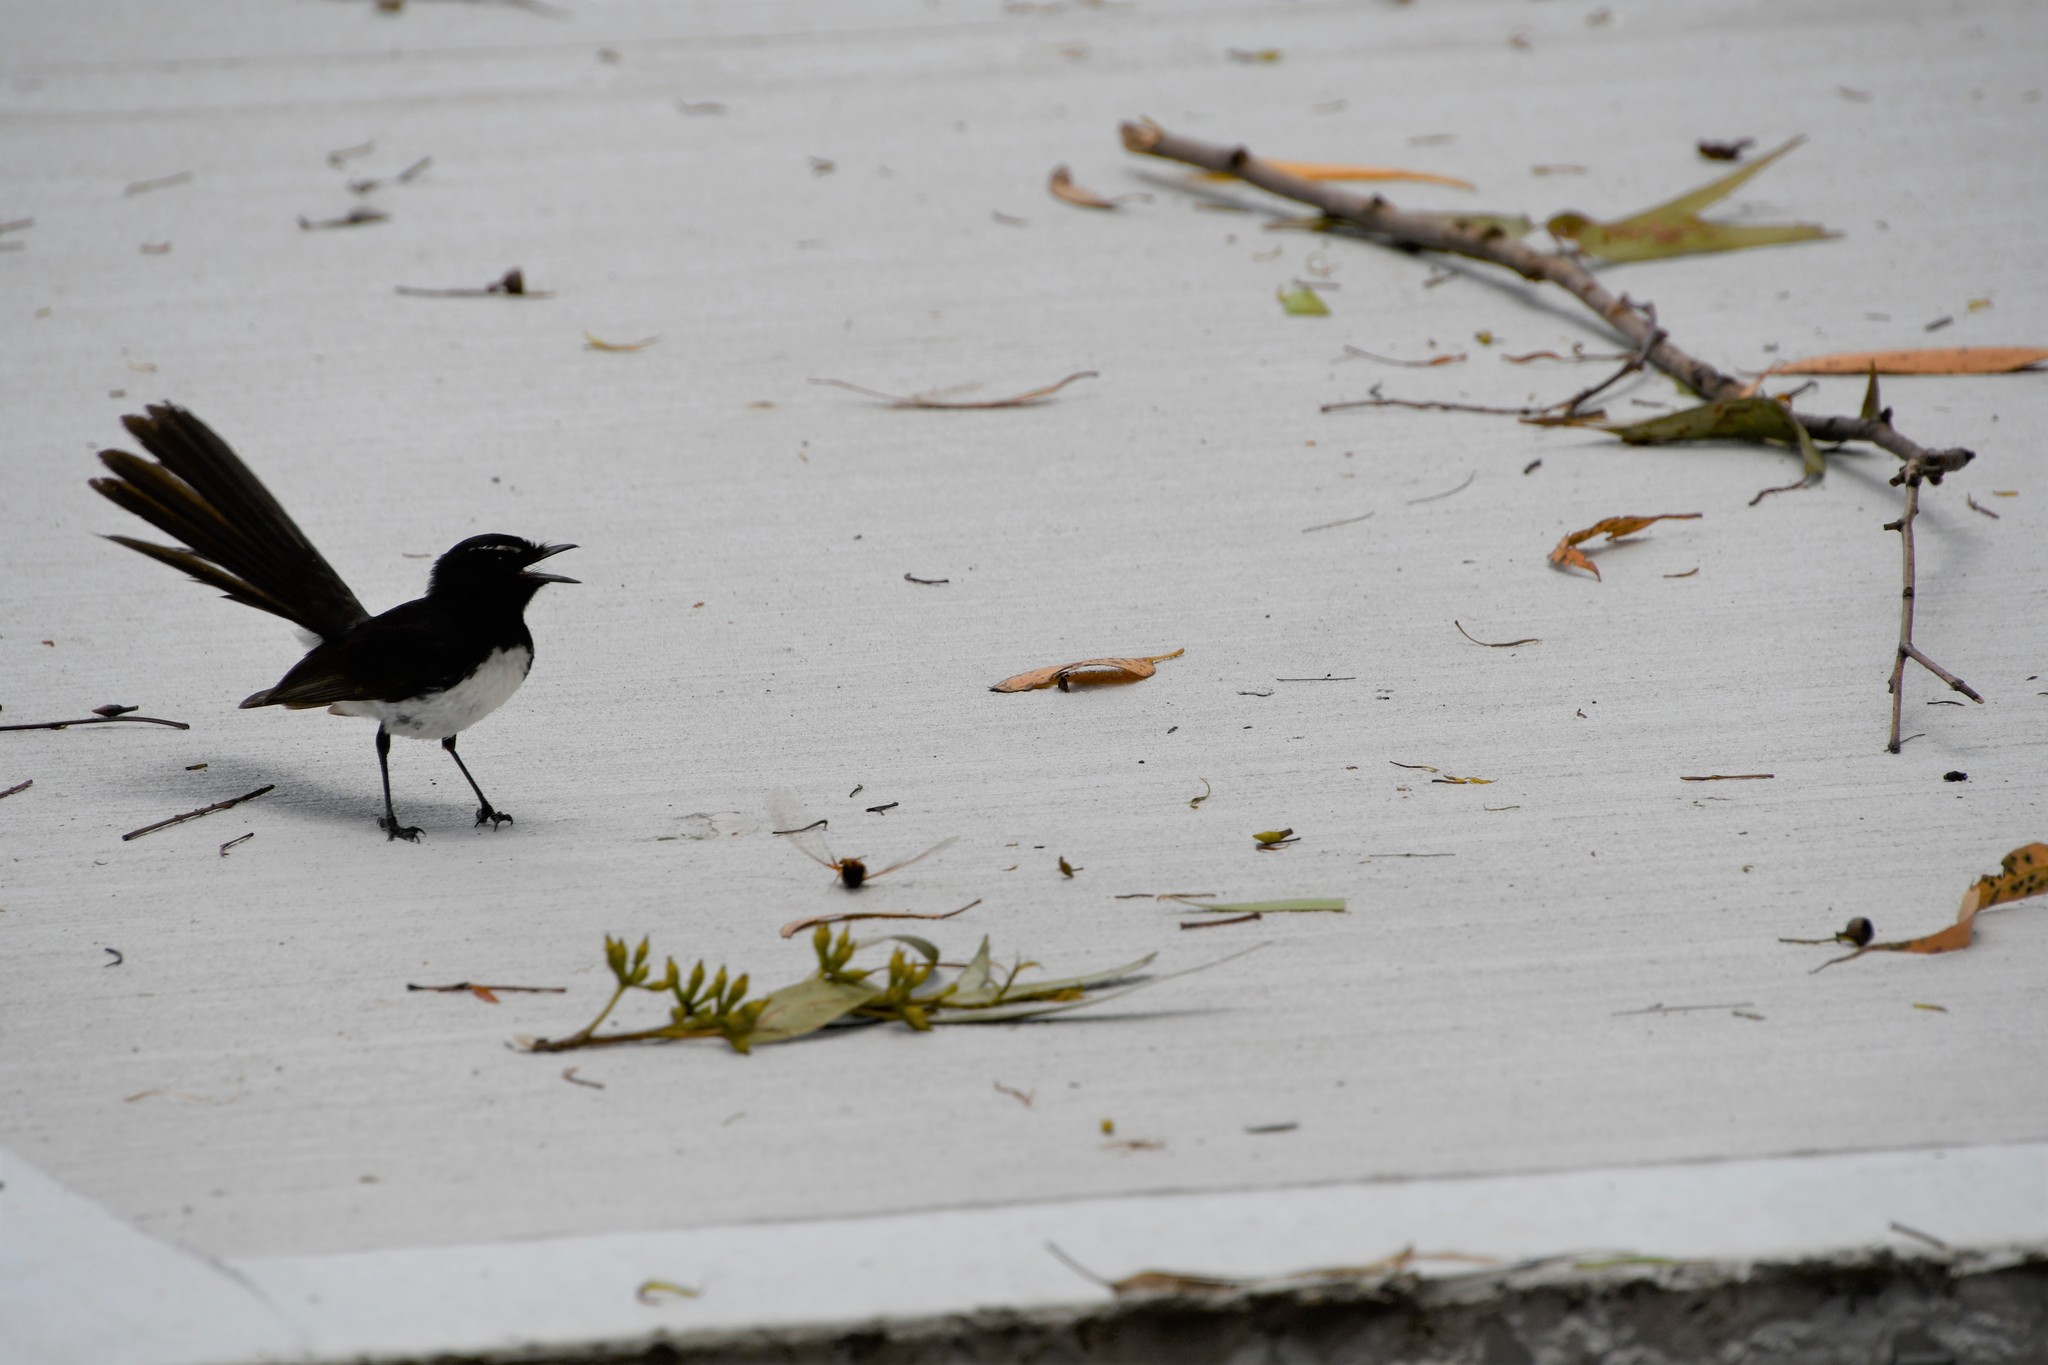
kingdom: Animalia
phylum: Chordata
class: Aves
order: Passeriformes
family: Rhipiduridae
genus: Rhipidura
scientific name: Rhipidura leucophrys
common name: Willie wagtail
